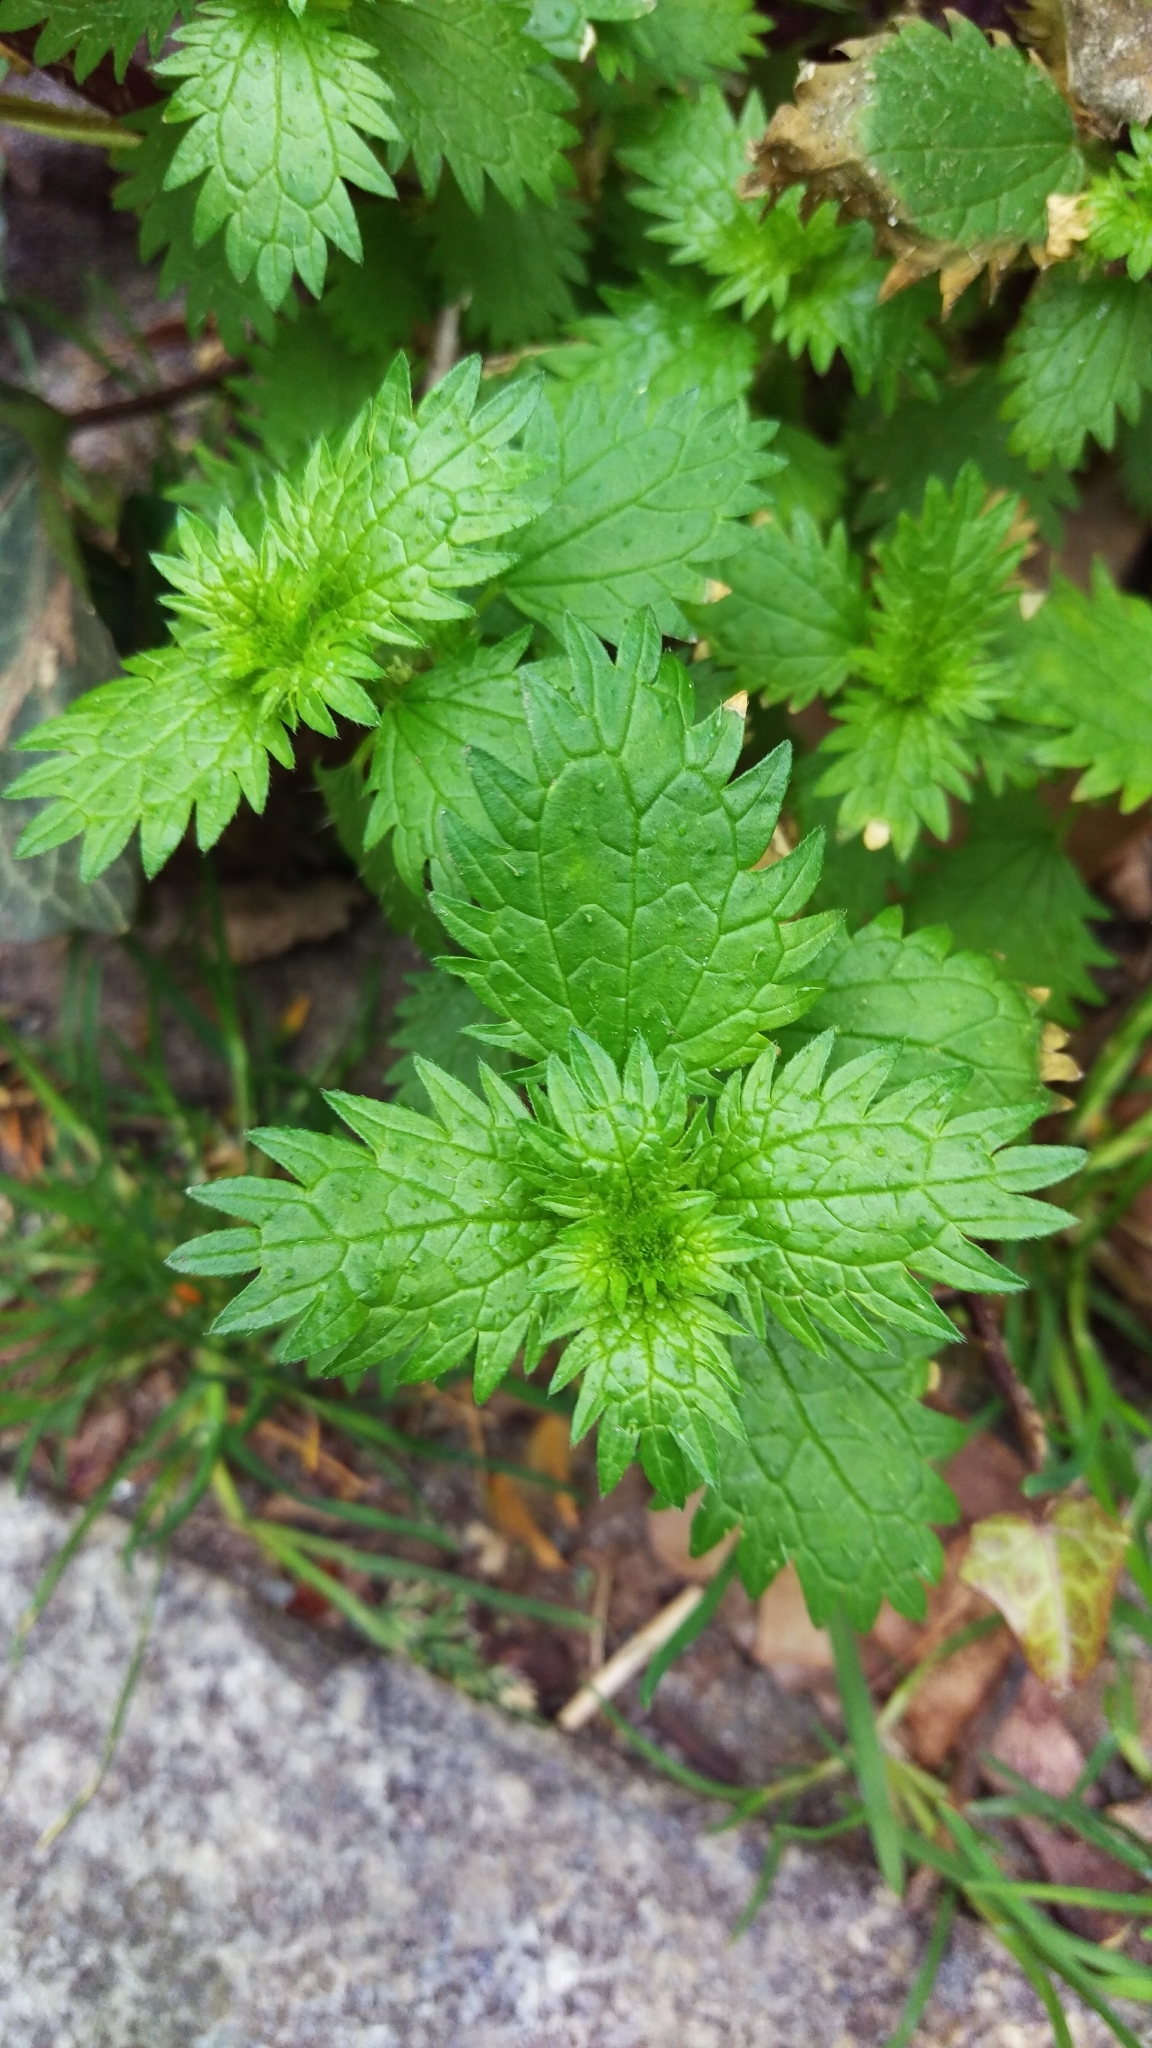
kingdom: Plantae
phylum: Tracheophyta
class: Magnoliopsida
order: Rosales
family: Urticaceae
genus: Urtica
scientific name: Urtica urens
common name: Dwarf nettle
